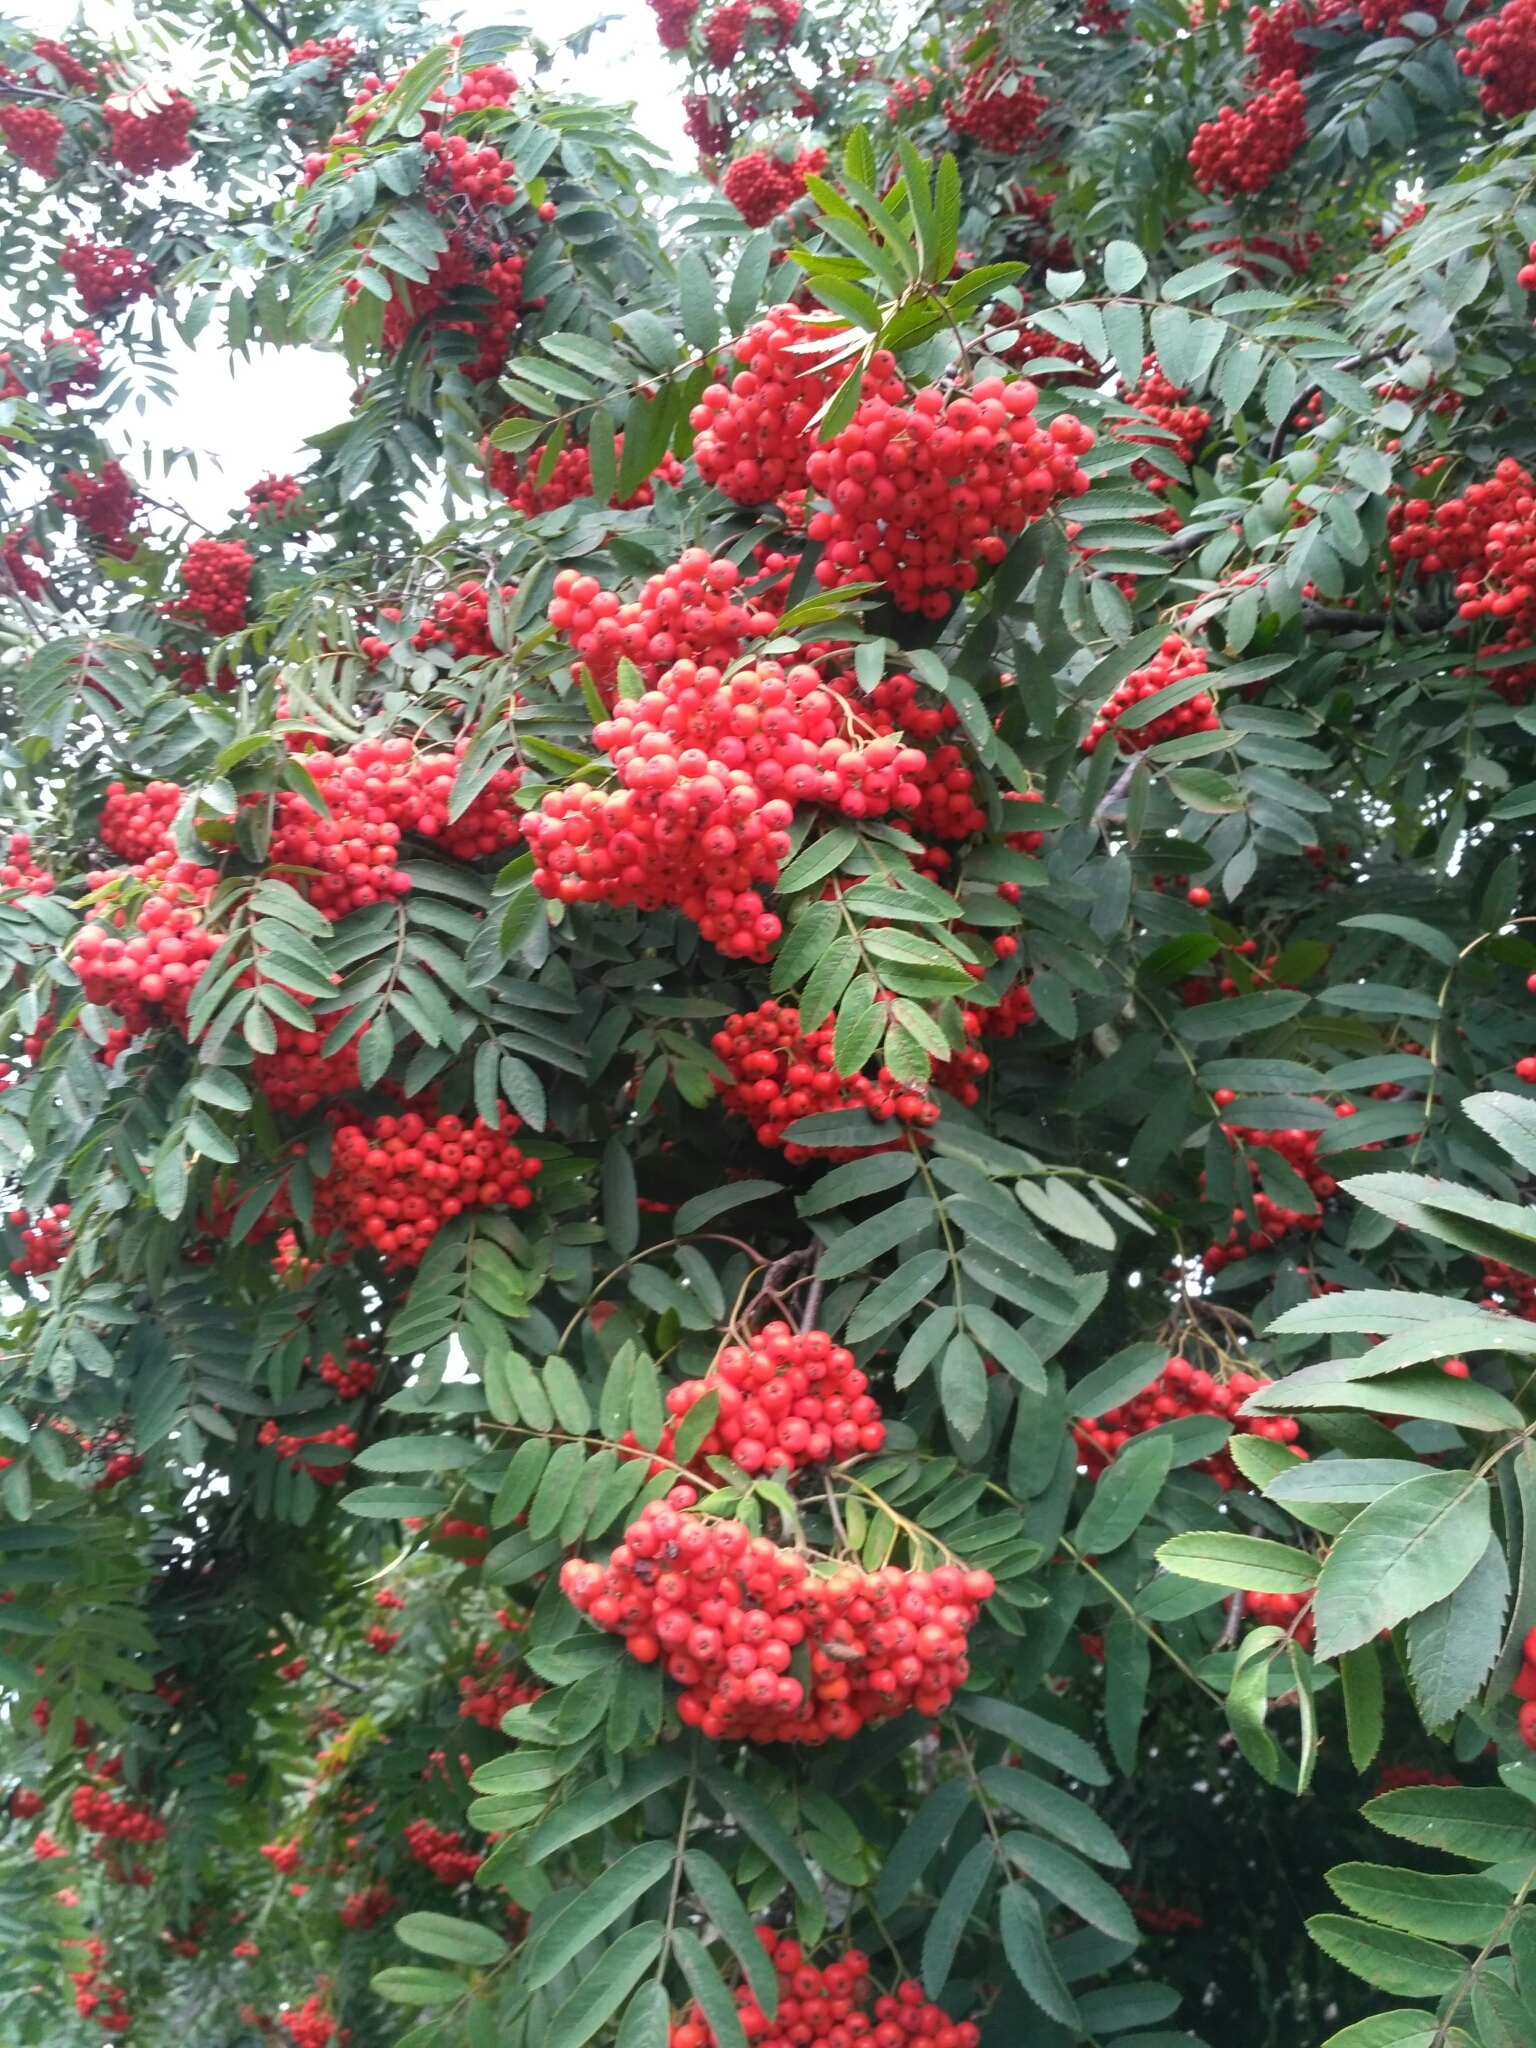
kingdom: Plantae
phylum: Tracheophyta
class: Magnoliopsida
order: Rosales
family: Rosaceae
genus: Sorbus
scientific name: Sorbus aucuparia
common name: Rowan
